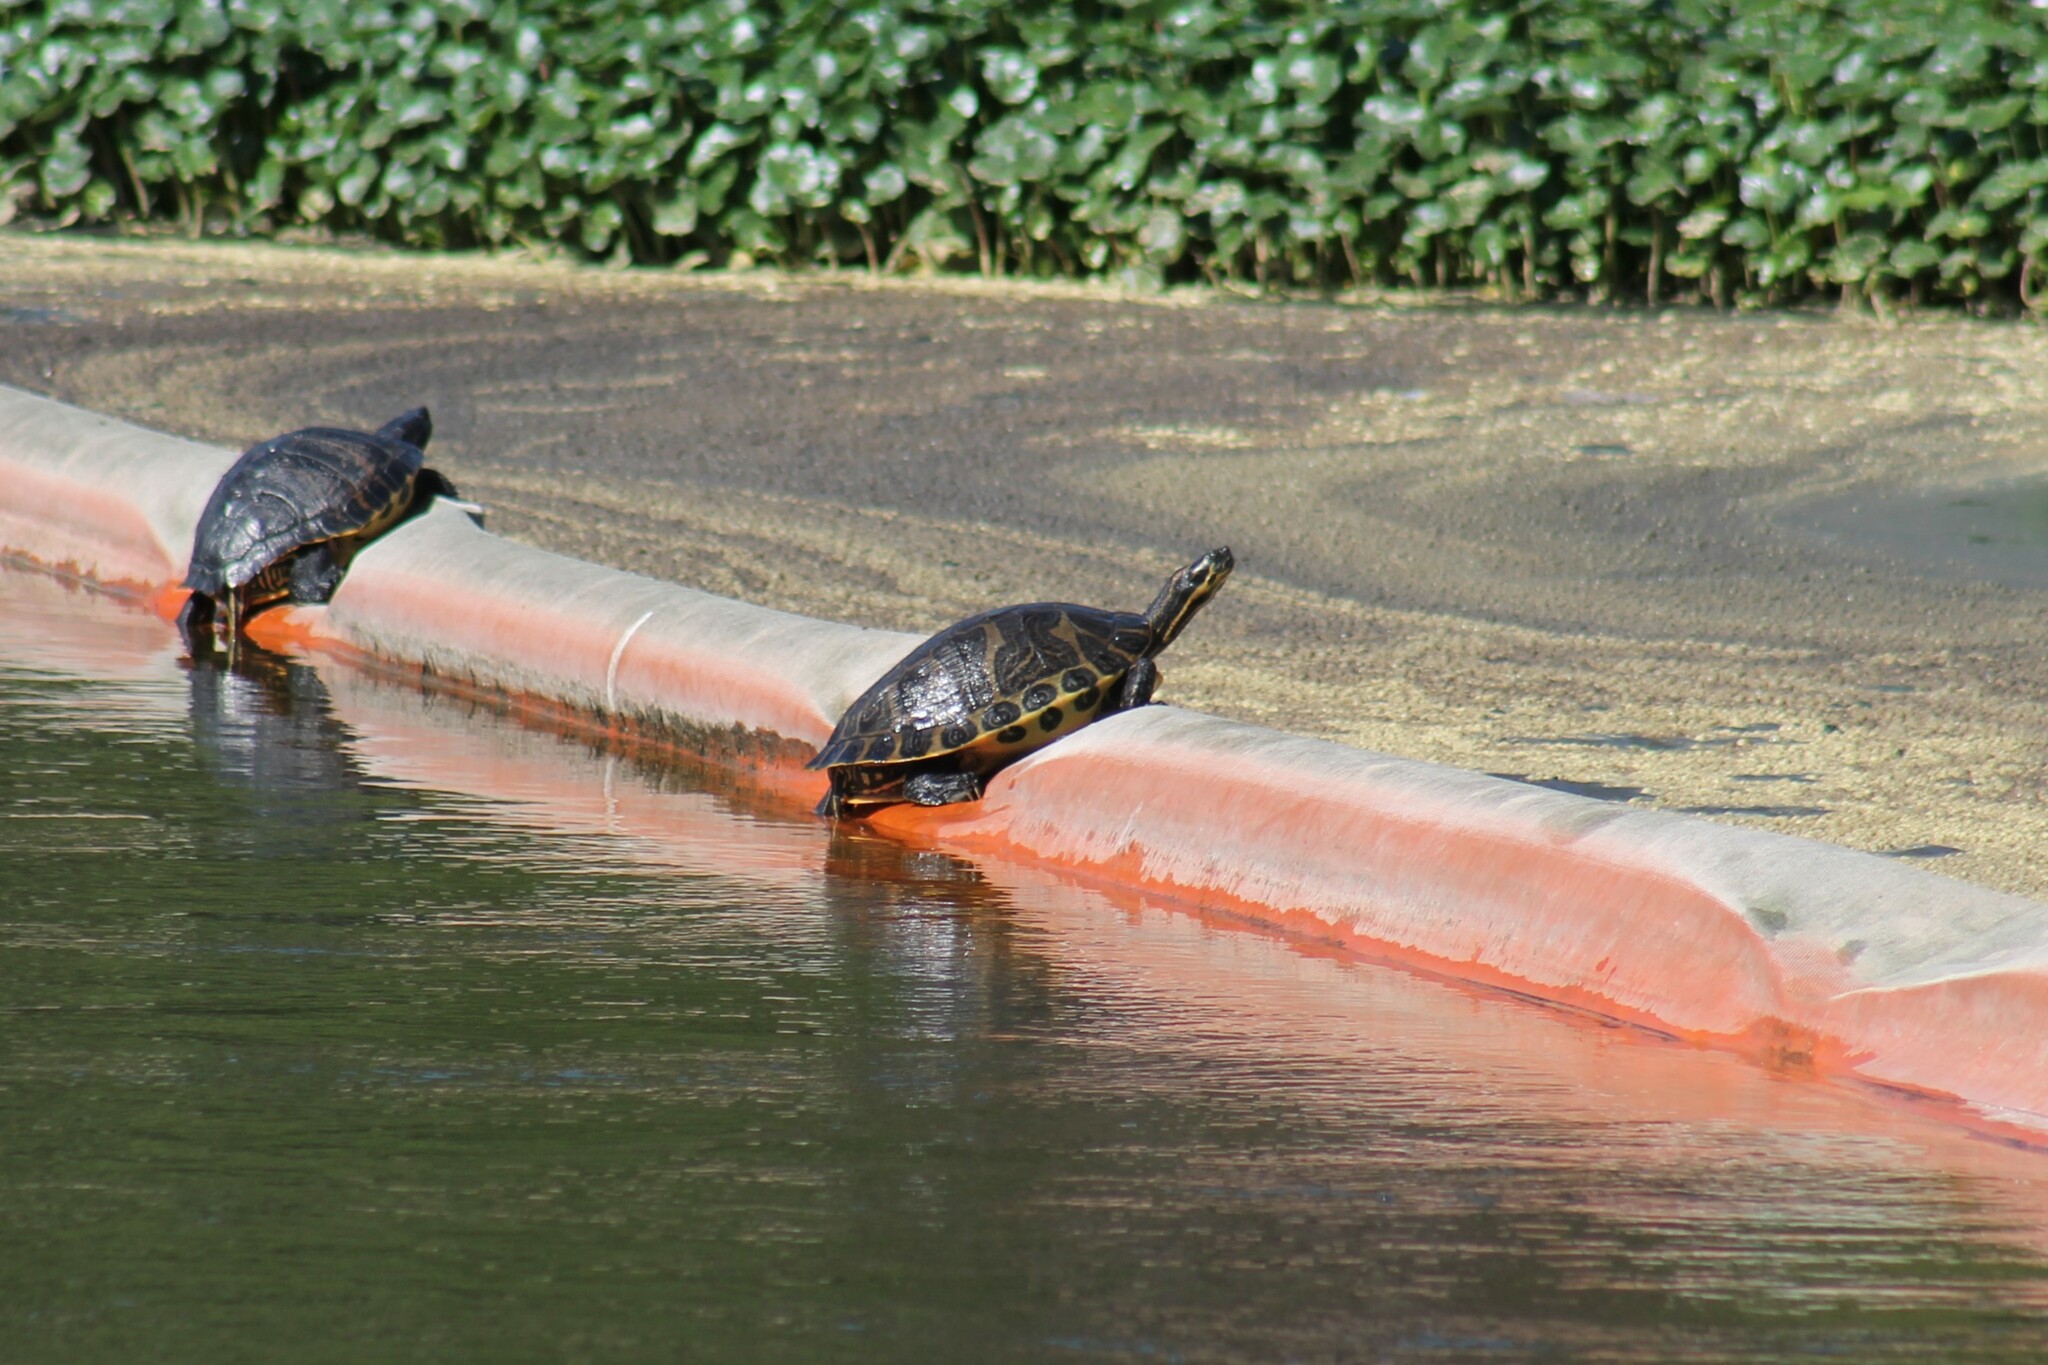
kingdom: Animalia
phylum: Chordata
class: Testudines
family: Emydidae
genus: Pseudemys
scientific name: Pseudemys concinna
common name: Eastern river cooter
